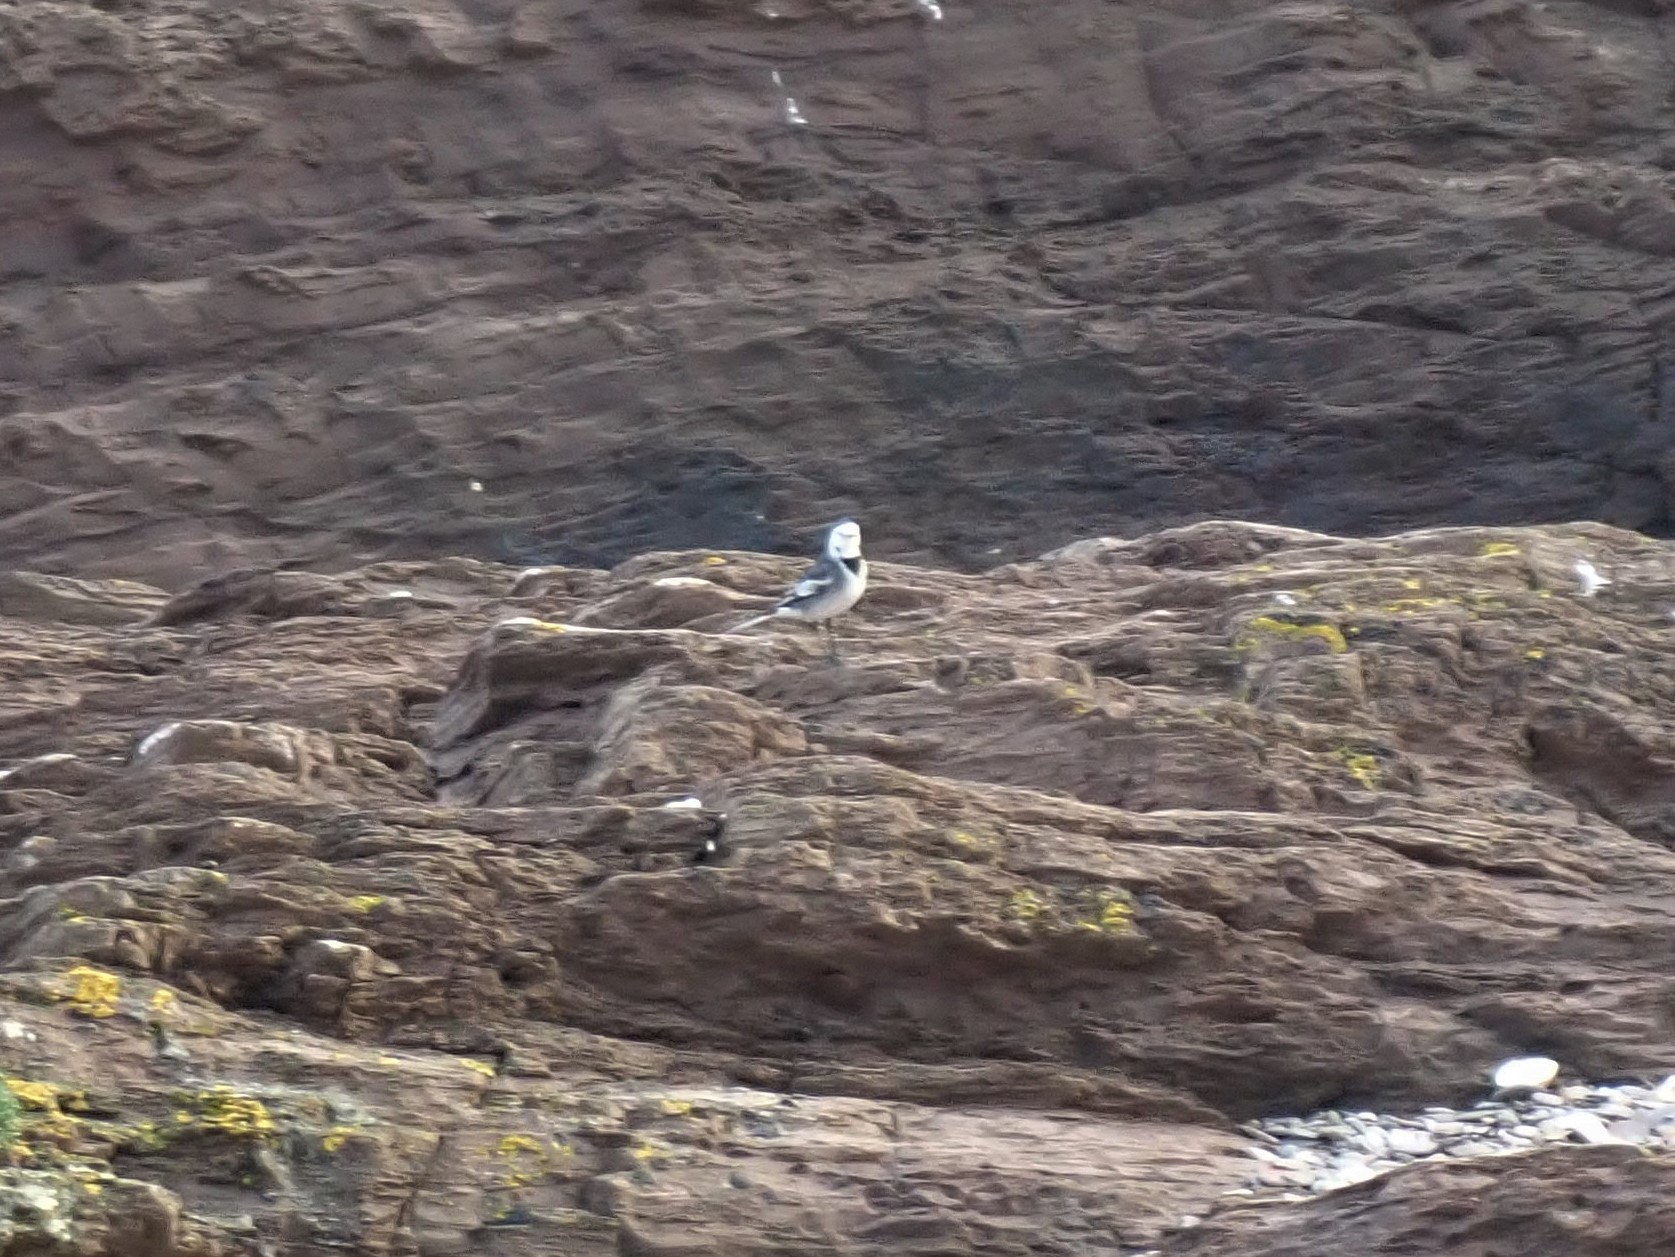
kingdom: Animalia
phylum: Chordata
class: Aves
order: Passeriformes
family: Motacillidae
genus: Motacilla
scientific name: Motacilla alba
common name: White wagtail
